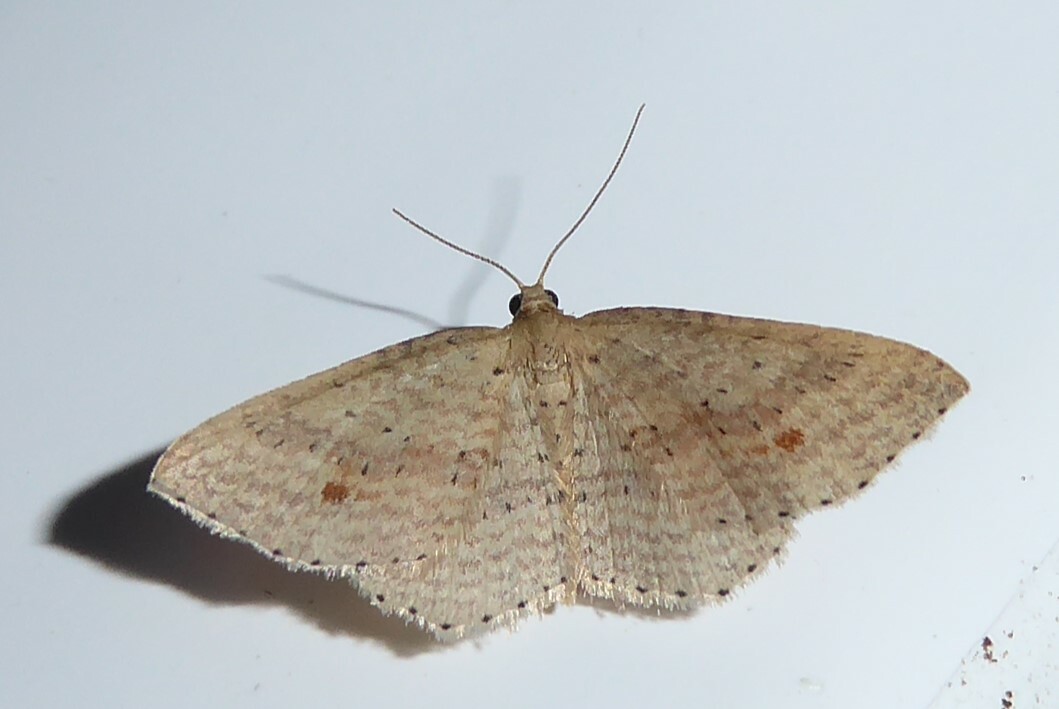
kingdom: Animalia
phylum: Arthropoda
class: Insecta
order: Lepidoptera
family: Geometridae
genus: Epicyme
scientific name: Epicyme rubropunctaria
